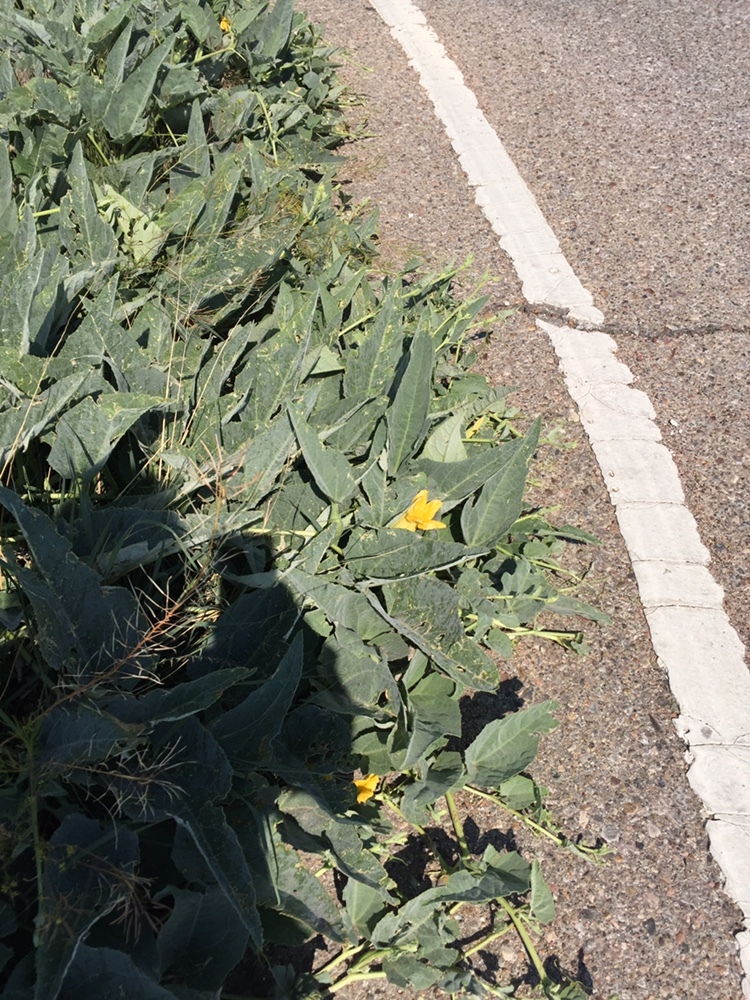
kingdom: Plantae
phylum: Tracheophyta
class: Magnoliopsida
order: Cucurbitales
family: Cucurbitaceae
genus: Cucurbita
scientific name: Cucurbita foetidissima
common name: Buffalo gourd
